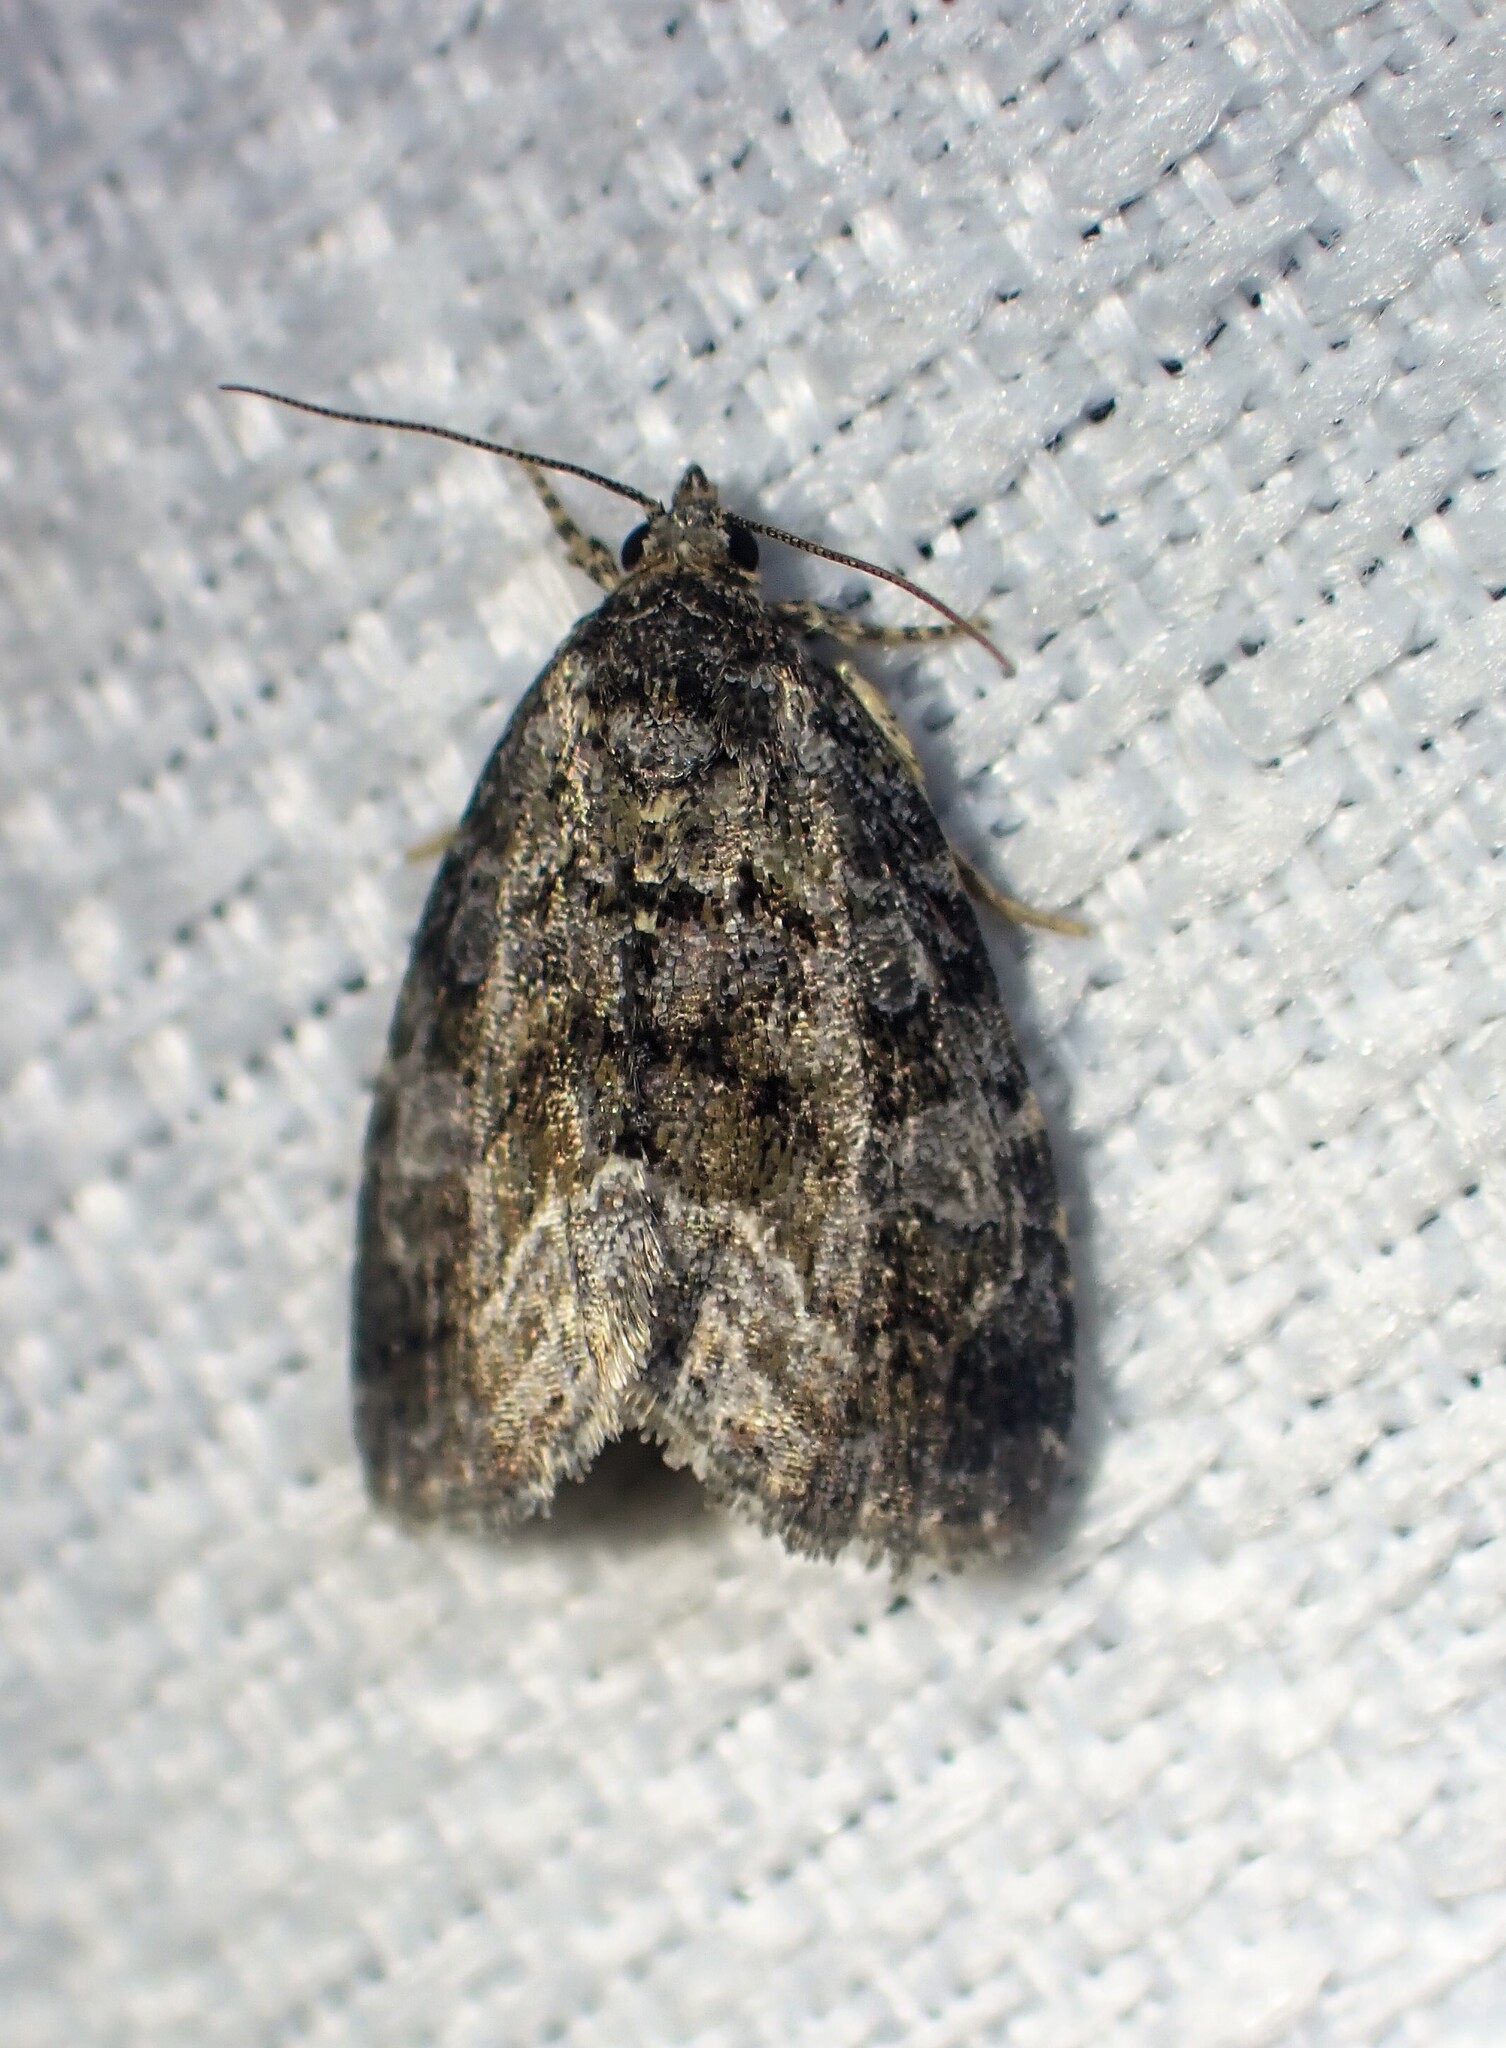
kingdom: Animalia
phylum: Arthropoda
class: Insecta
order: Lepidoptera
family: Noctuidae
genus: Protodeltote
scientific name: Protodeltote muscosula
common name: Large mossy glyph
